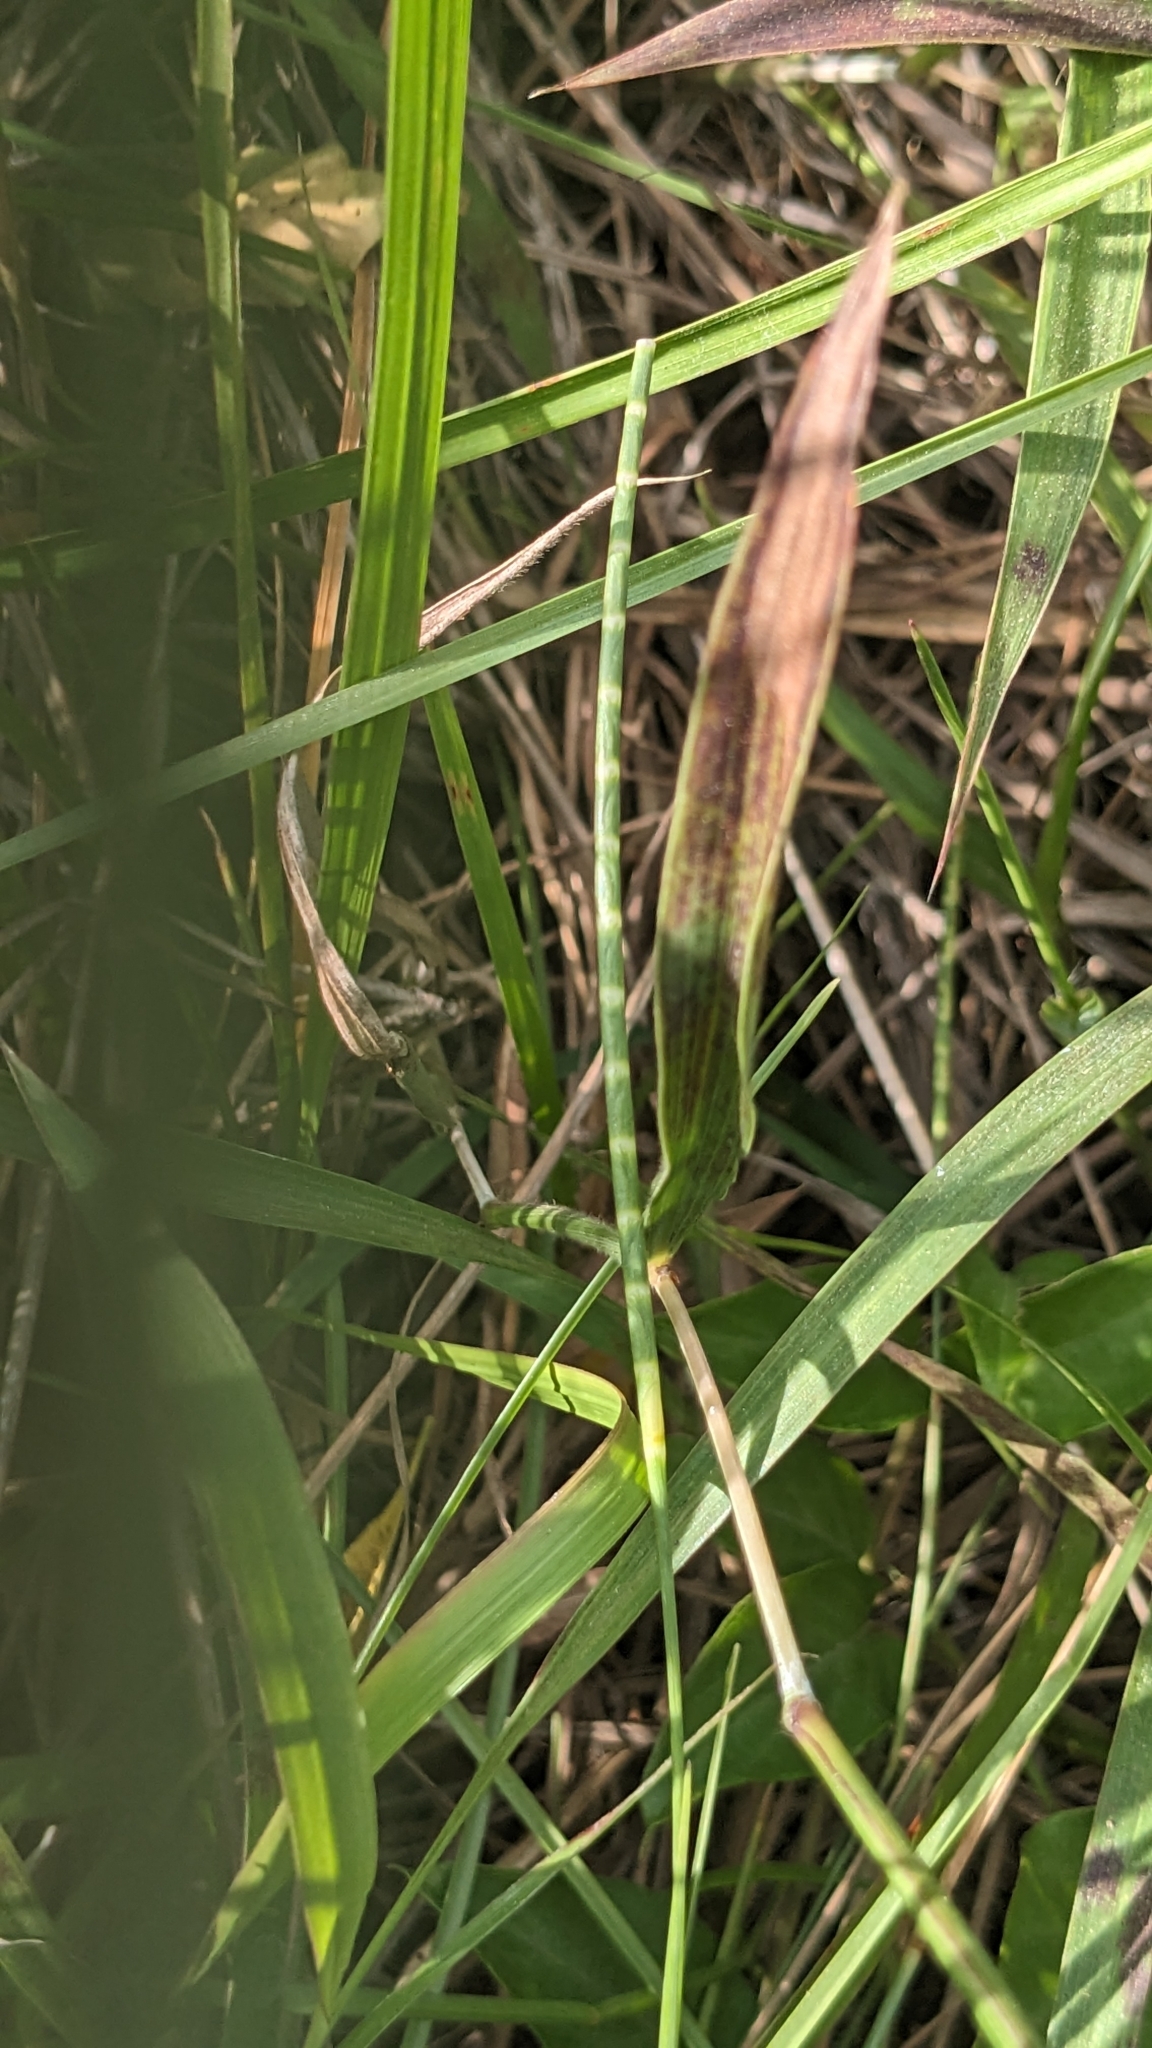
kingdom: Plantae
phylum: Tracheophyta
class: Liliopsida
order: Poales
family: Poaceae
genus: Mnesithea
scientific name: Mnesithea laevis
